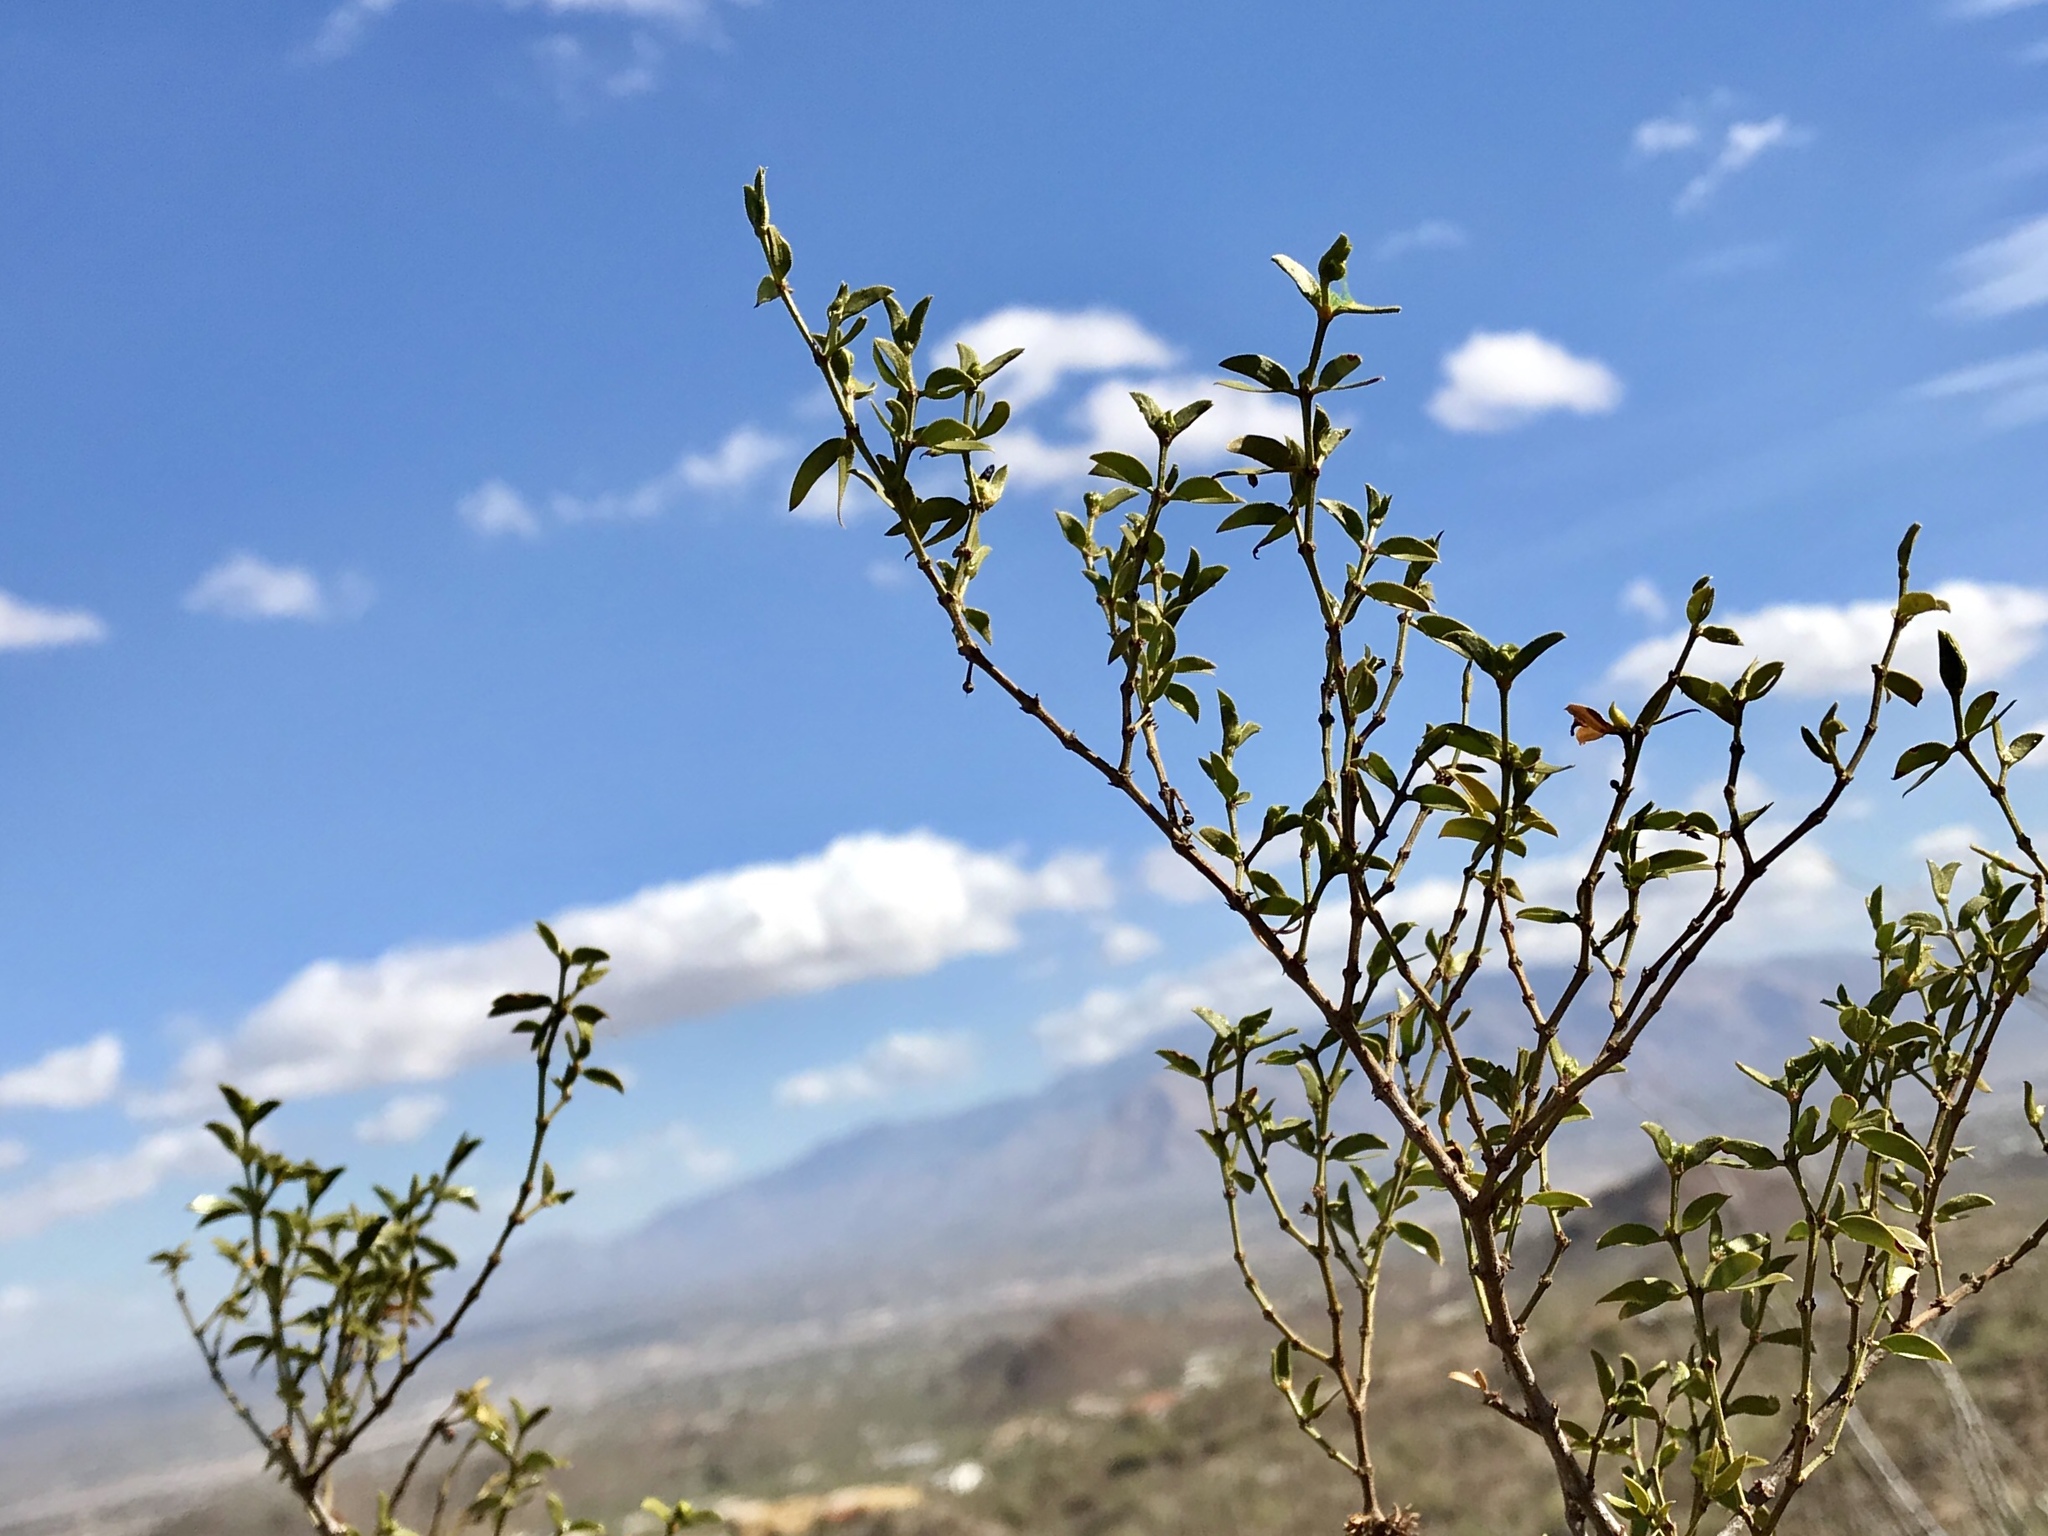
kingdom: Plantae
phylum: Tracheophyta
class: Magnoliopsida
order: Zygophyllales
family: Zygophyllaceae
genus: Larrea
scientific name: Larrea tridentata
